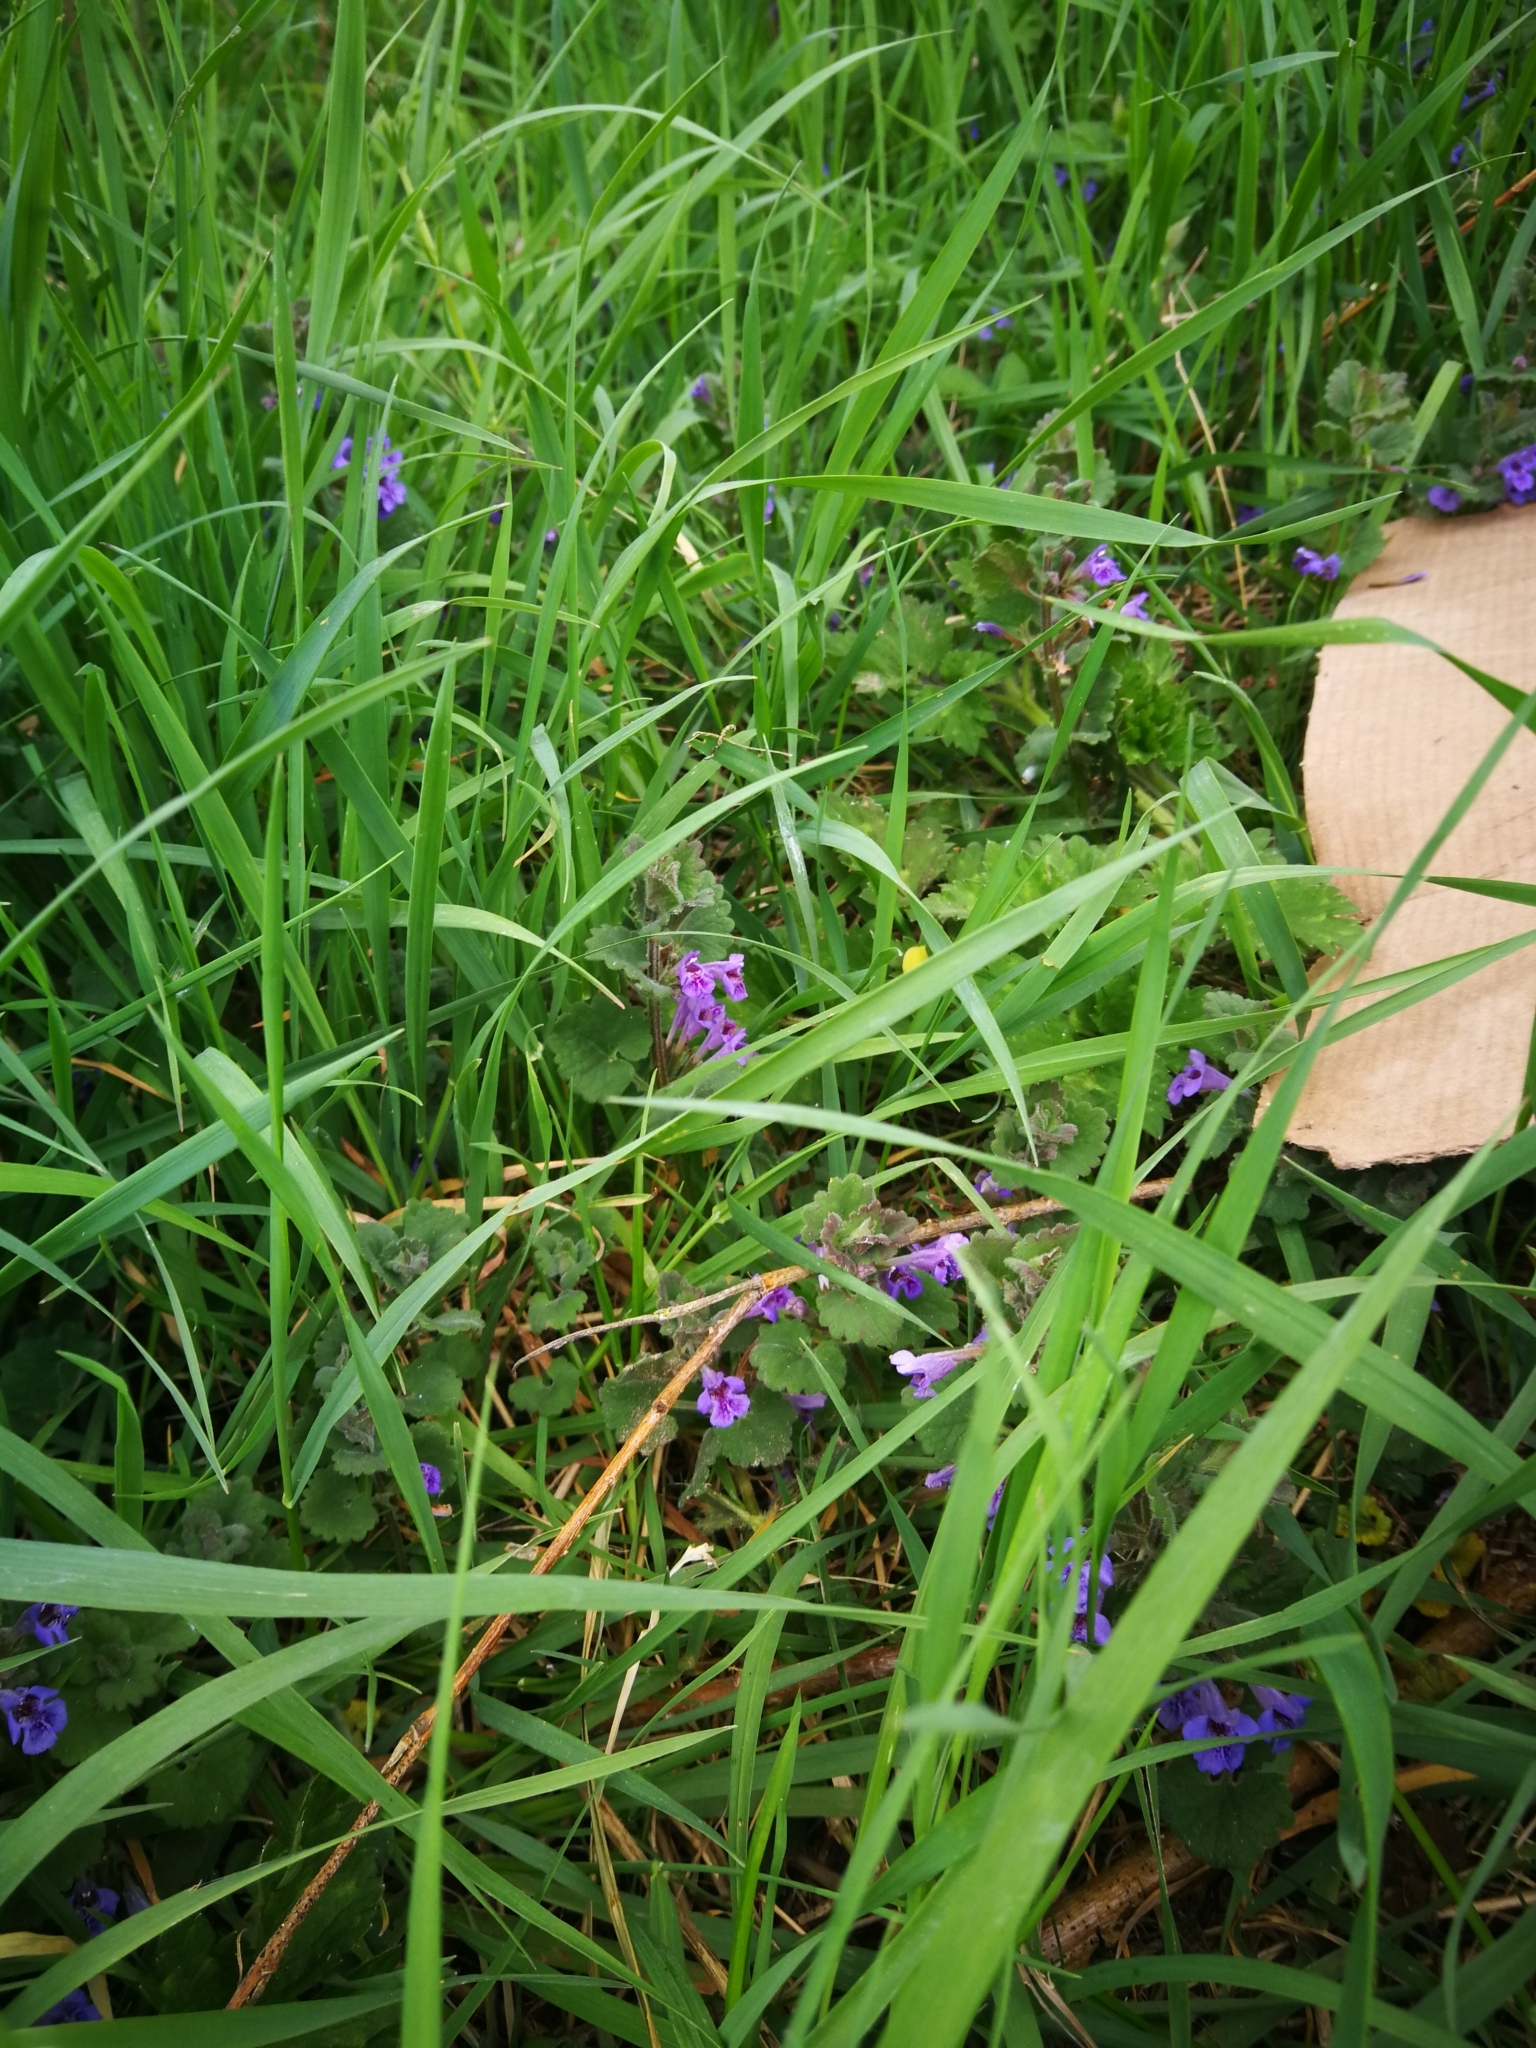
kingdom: Plantae
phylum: Tracheophyta
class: Magnoliopsida
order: Lamiales
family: Lamiaceae
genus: Glechoma
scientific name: Glechoma hederacea
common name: Ground ivy
